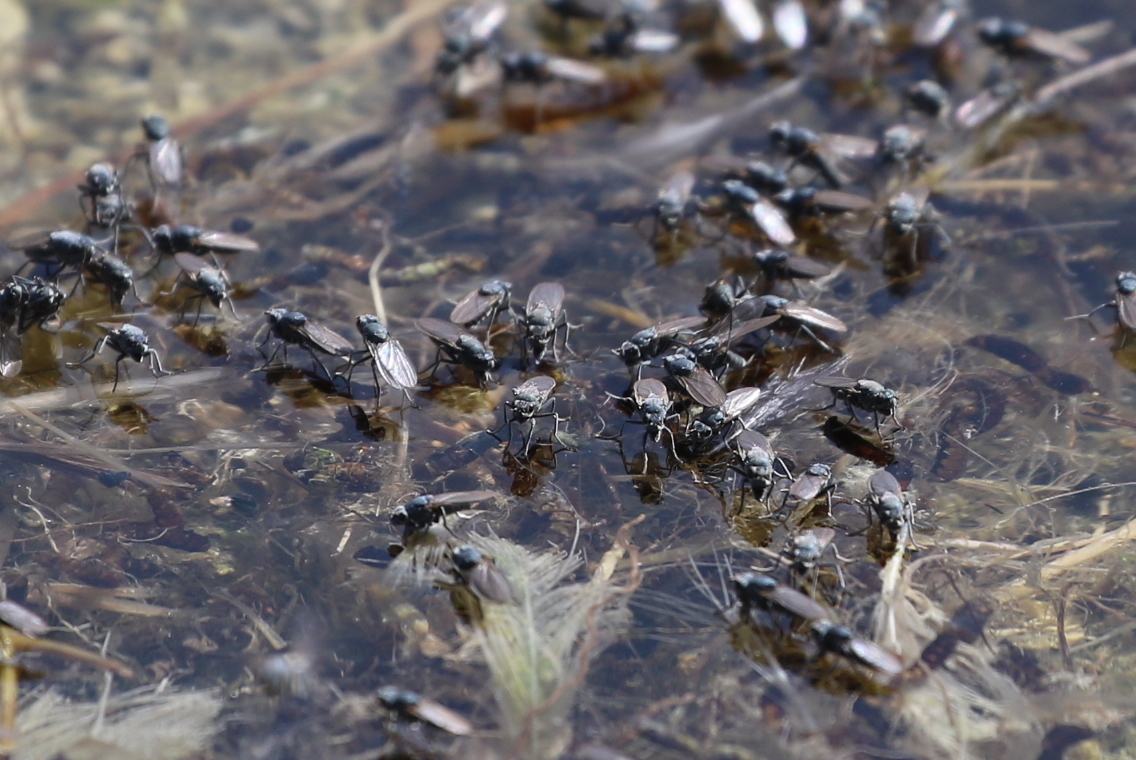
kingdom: Animalia
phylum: Arthropoda
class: Insecta
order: Diptera
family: Ephydridae
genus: Cirrula
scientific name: Cirrula hians
